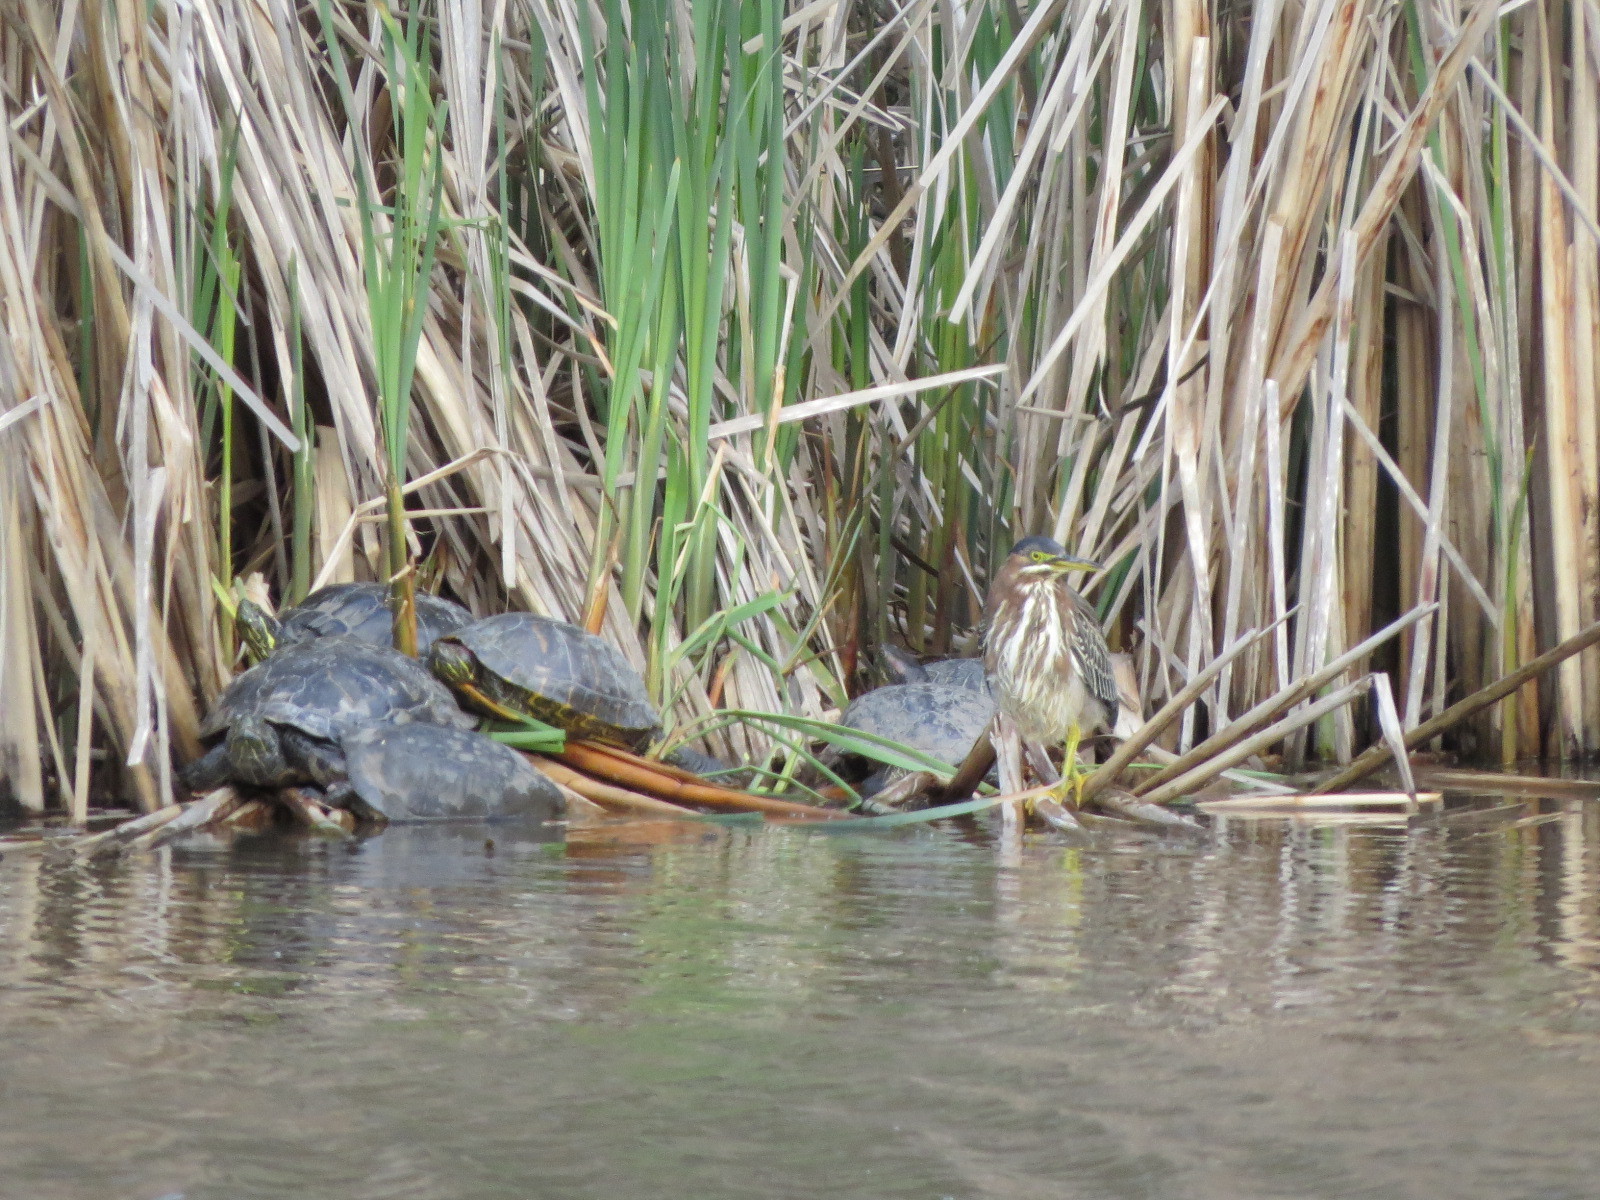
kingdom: Animalia
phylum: Chordata
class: Aves
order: Pelecaniformes
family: Ardeidae
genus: Butorides
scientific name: Butorides virescens
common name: Green heron
